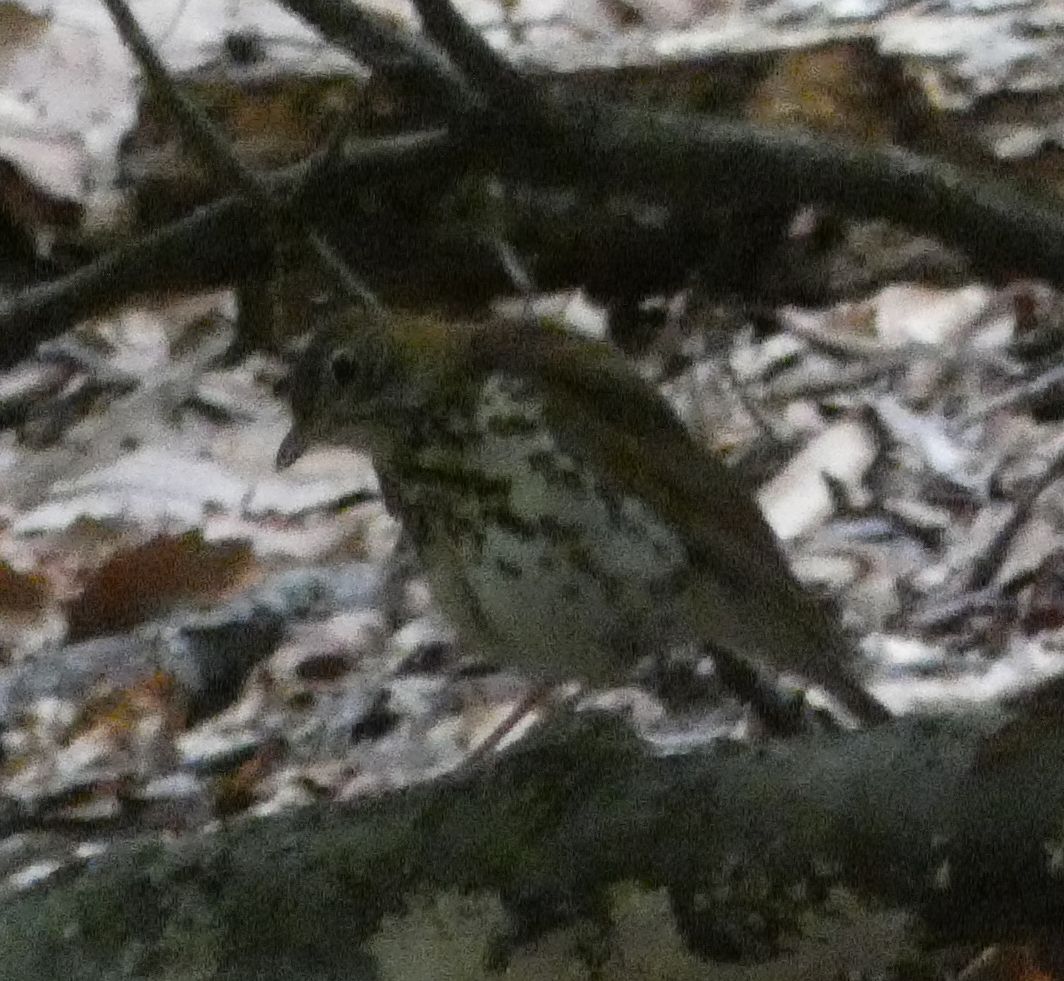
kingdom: Animalia
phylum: Chordata
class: Aves
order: Passeriformes
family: Turdidae
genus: Hylocichla
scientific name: Hylocichla mustelina
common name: Wood thrush
